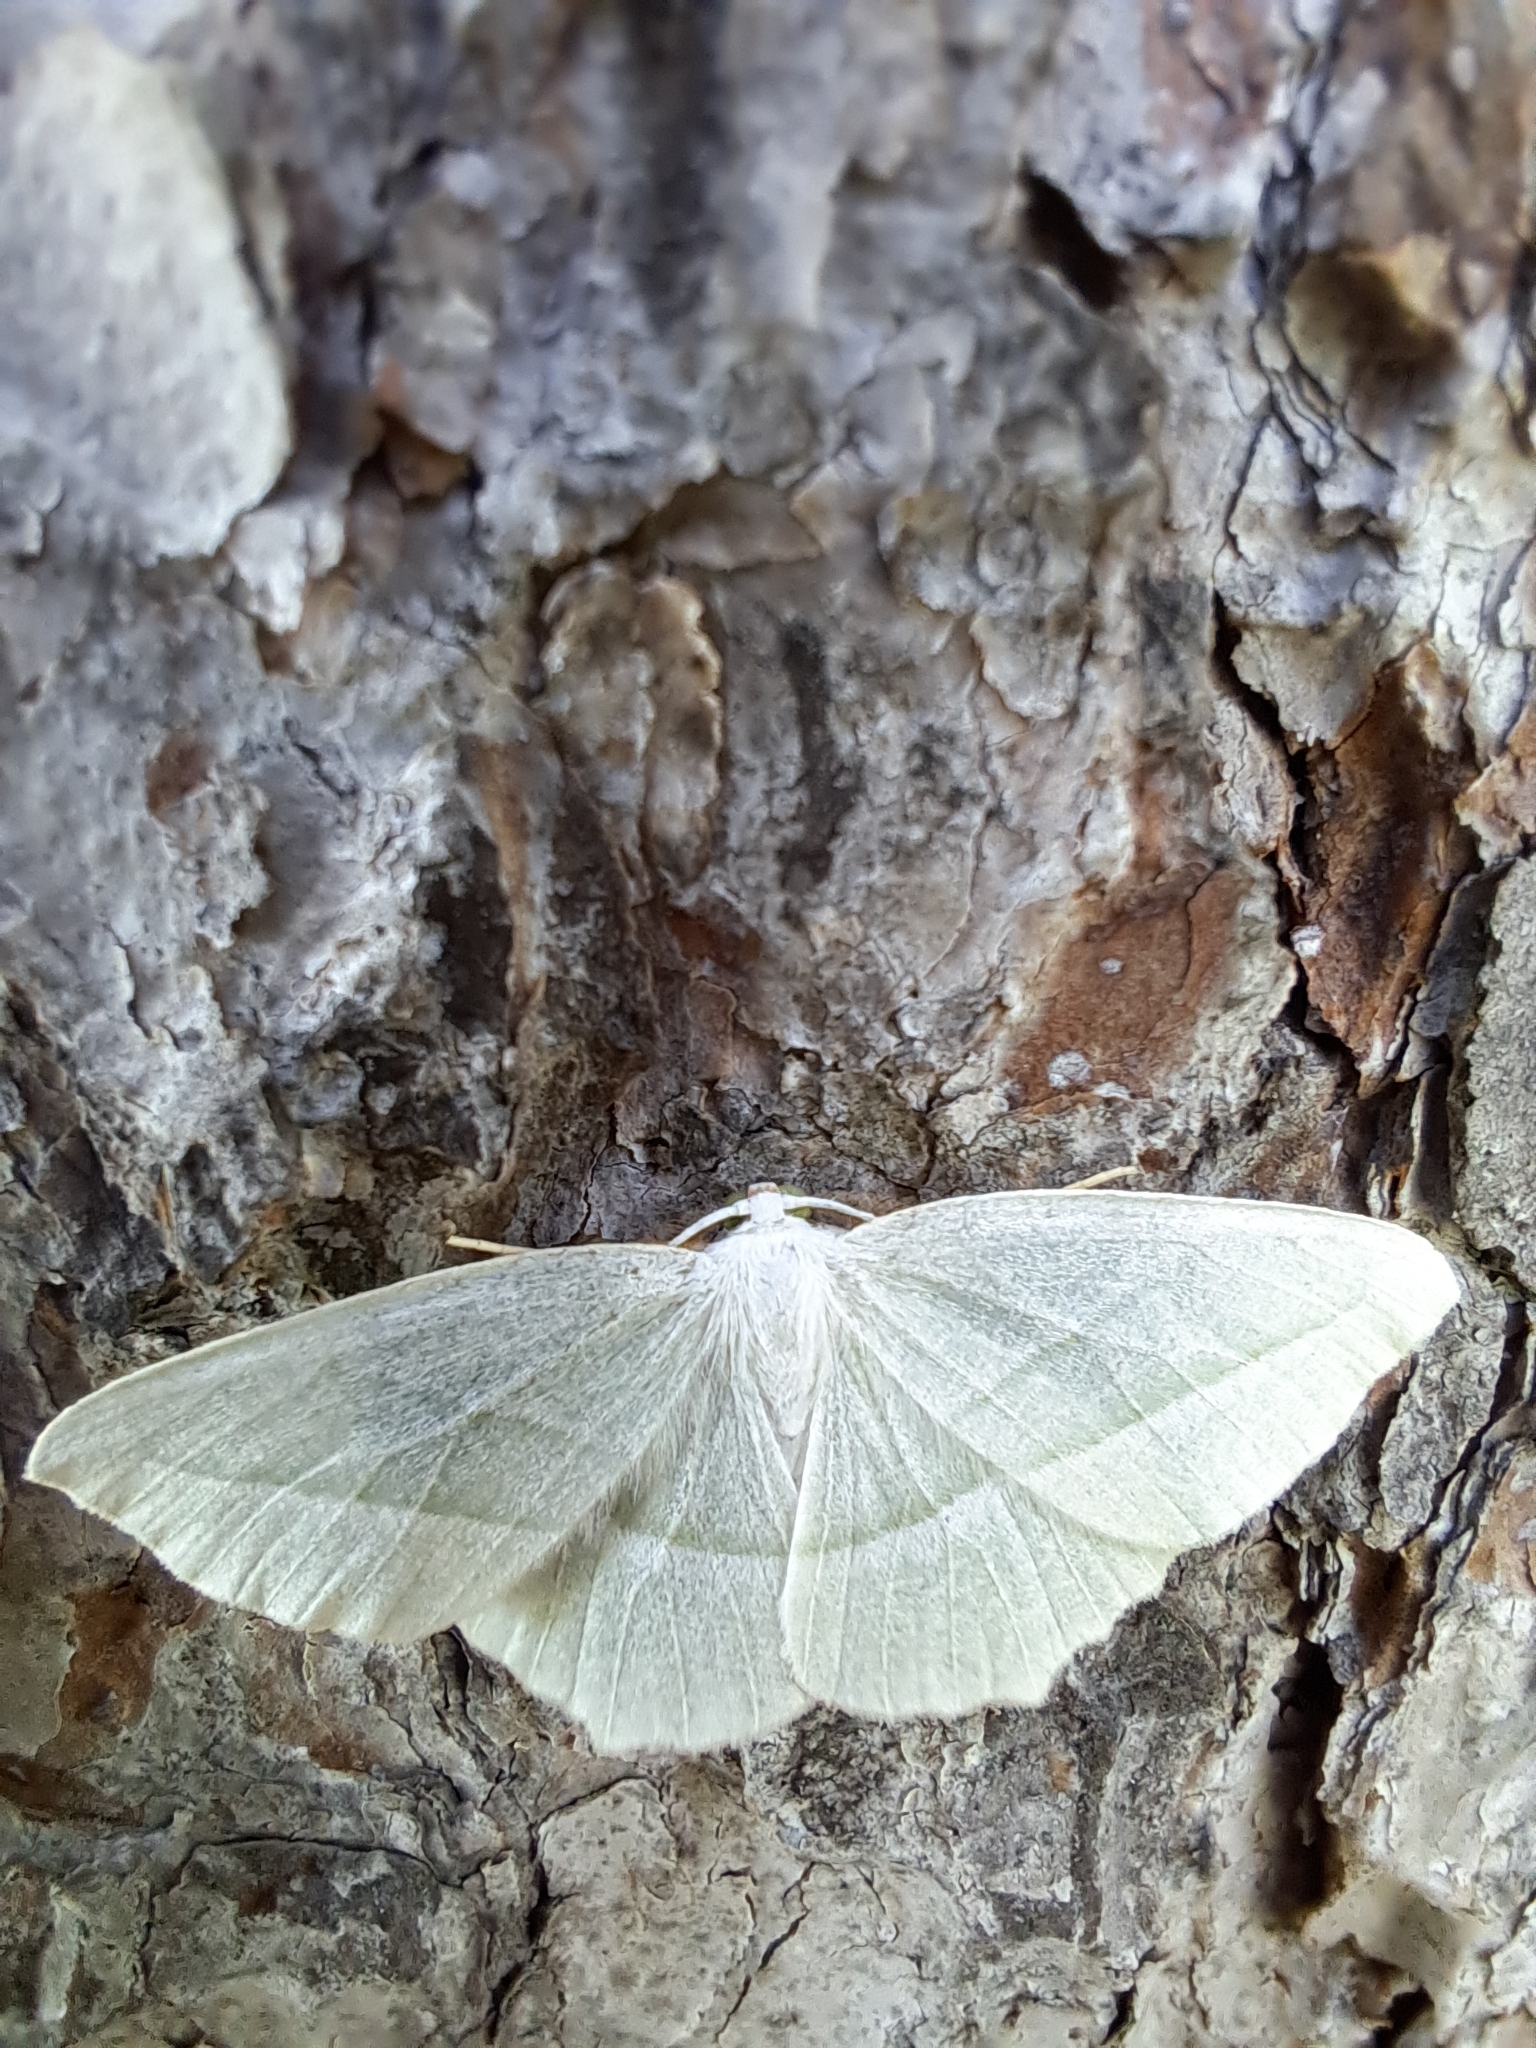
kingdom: Animalia
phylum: Arthropoda
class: Insecta
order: Lepidoptera
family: Geometridae
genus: Campaea
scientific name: Campaea perlata
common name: Fringed looper
